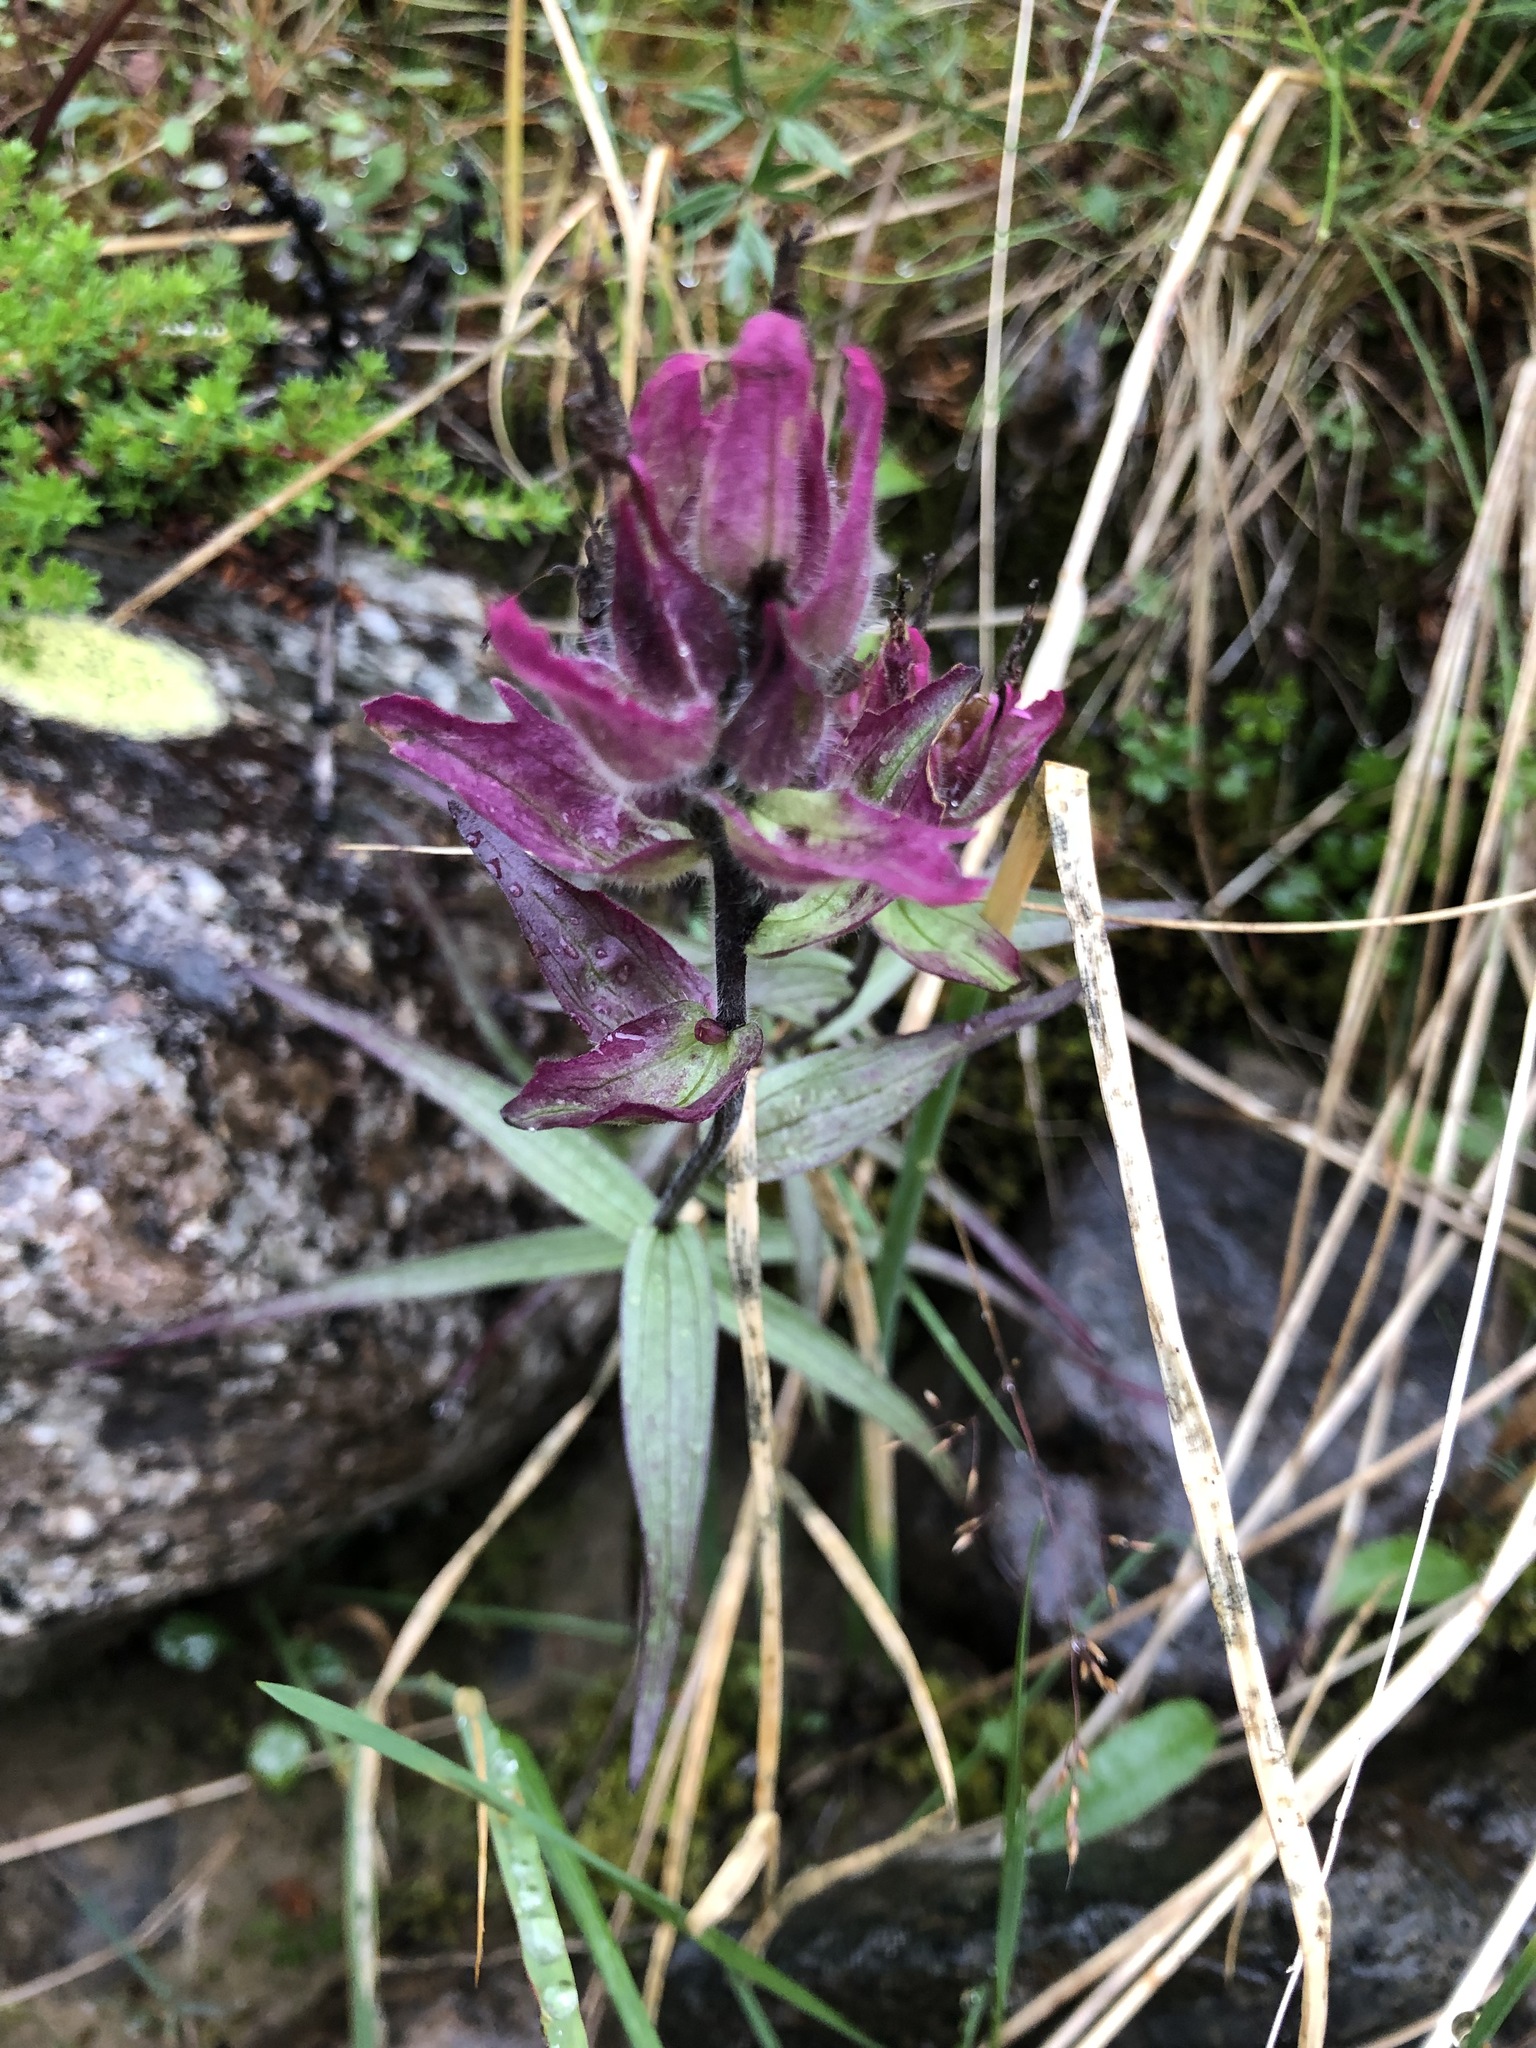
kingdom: Plantae
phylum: Tracheophyta
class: Magnoliopsida
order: Lamiales
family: Orobanchaceae
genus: Castilleja
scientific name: Castilleja arctica
